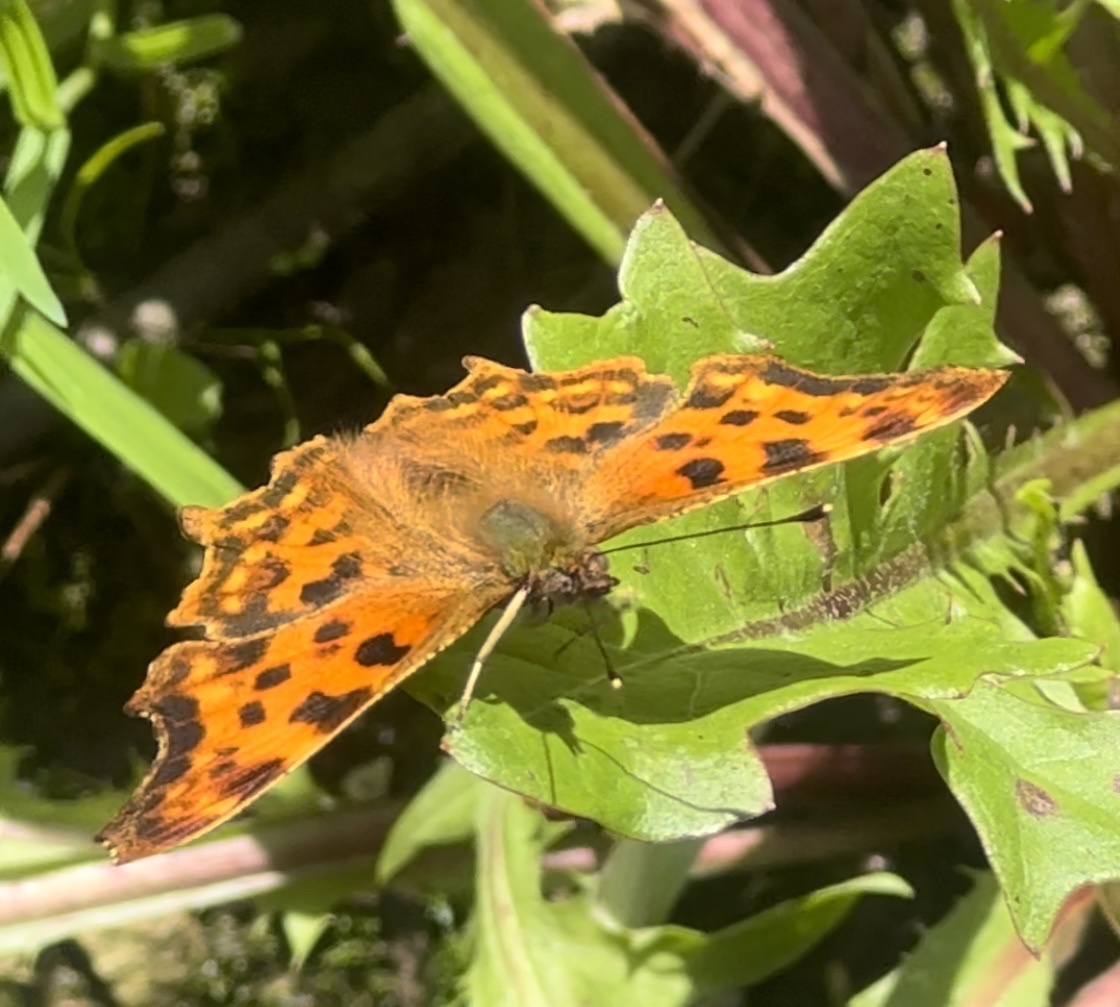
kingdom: Animalia
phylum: Arthropoda
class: Insecta
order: Lepidoptera
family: Nymphalidae
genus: Polygonia
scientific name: Polygonia c-album
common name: Comma
